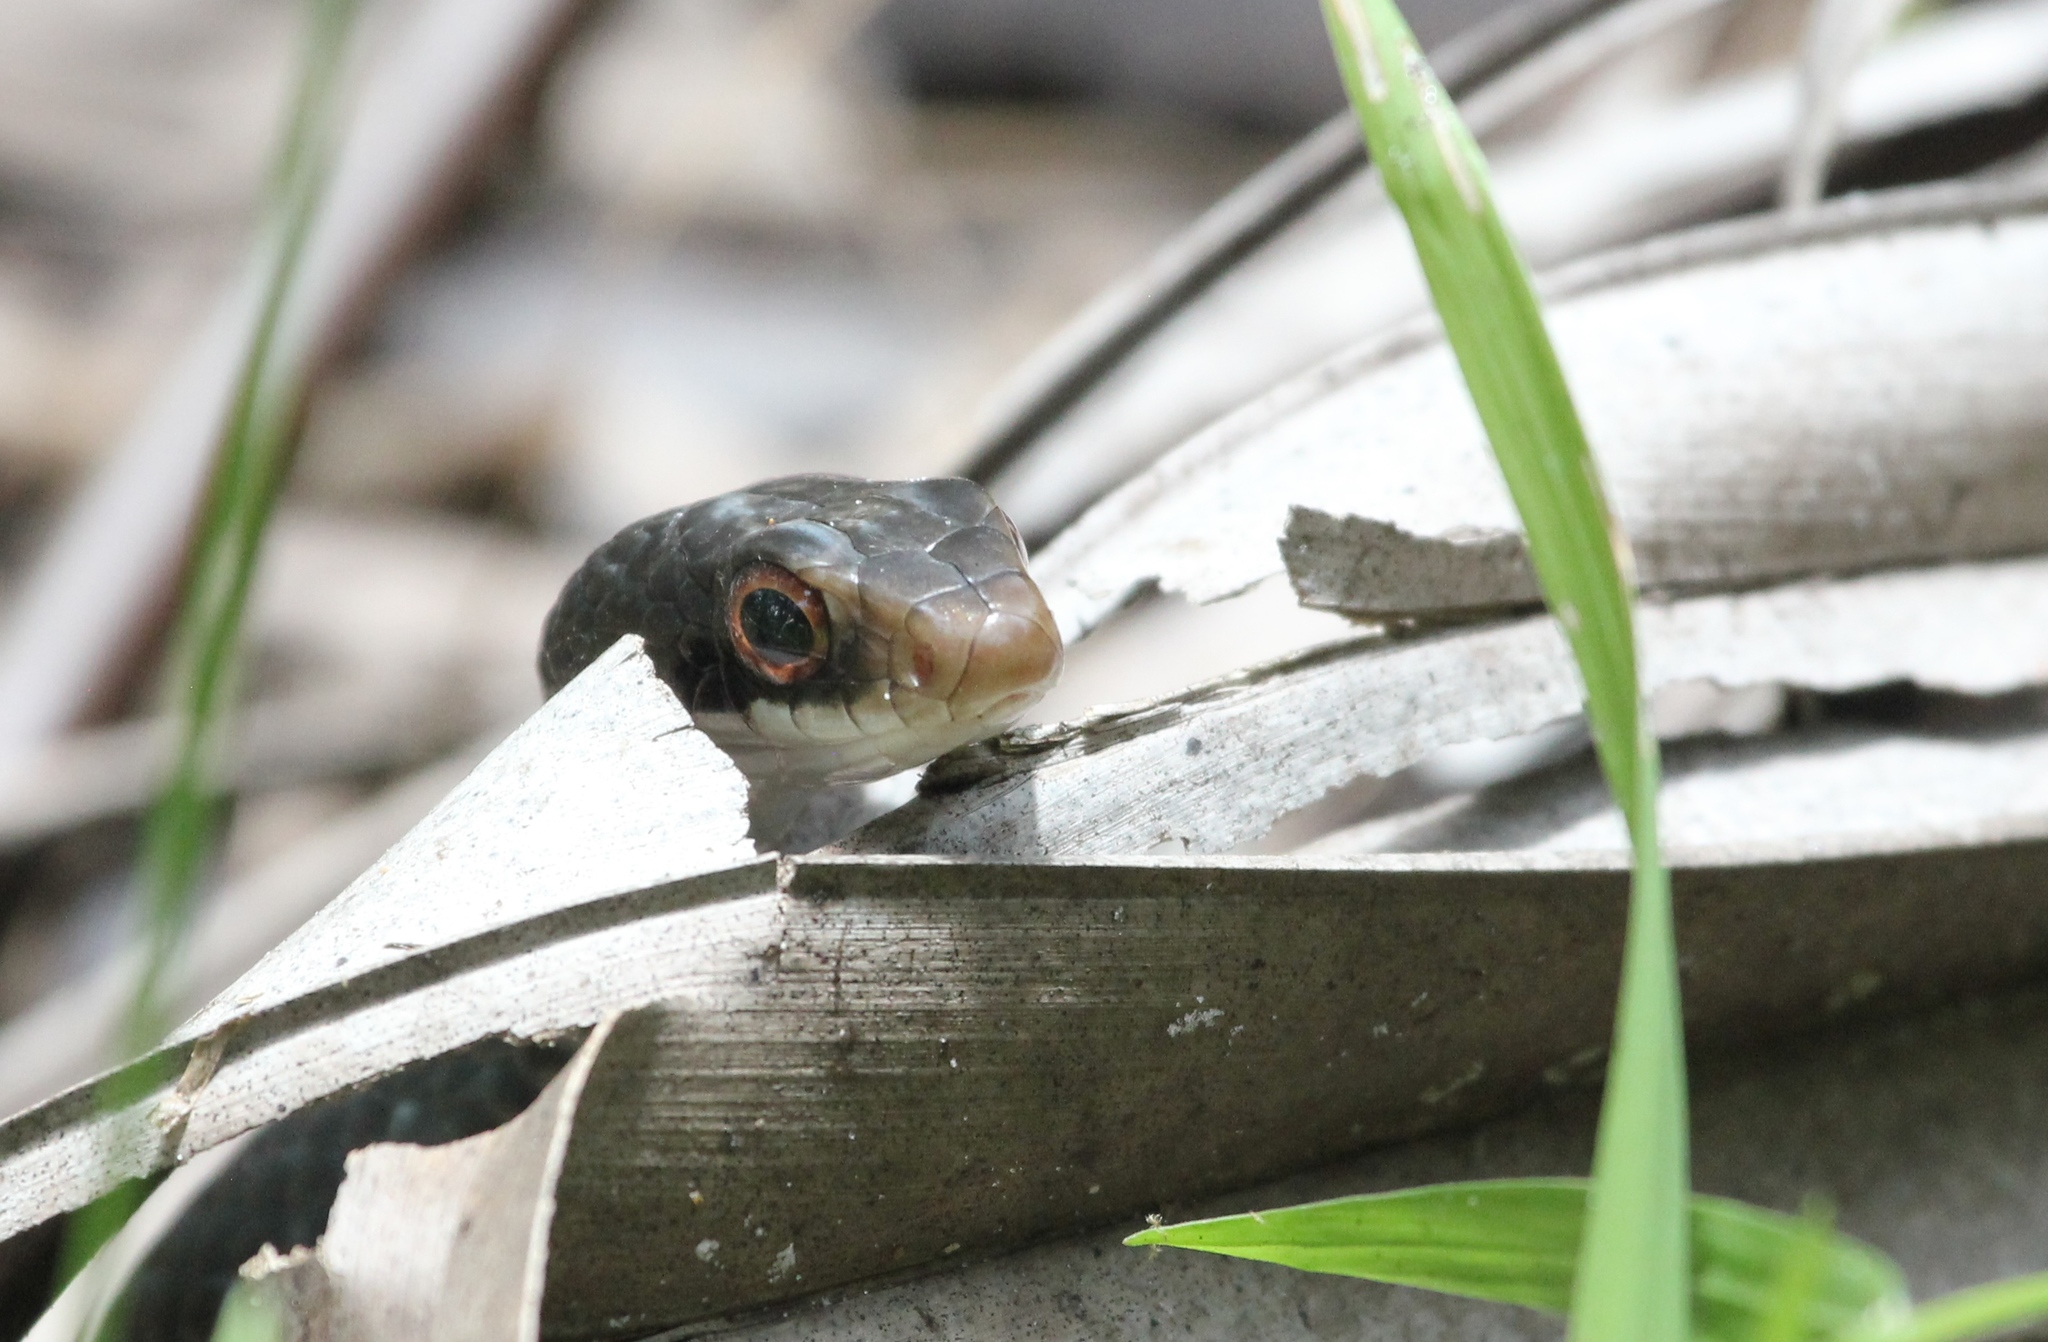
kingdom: Animalia
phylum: Chordata
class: Squamata
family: Colubridae
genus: Coluber
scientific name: Coluber constrictor
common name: Eastern racer
